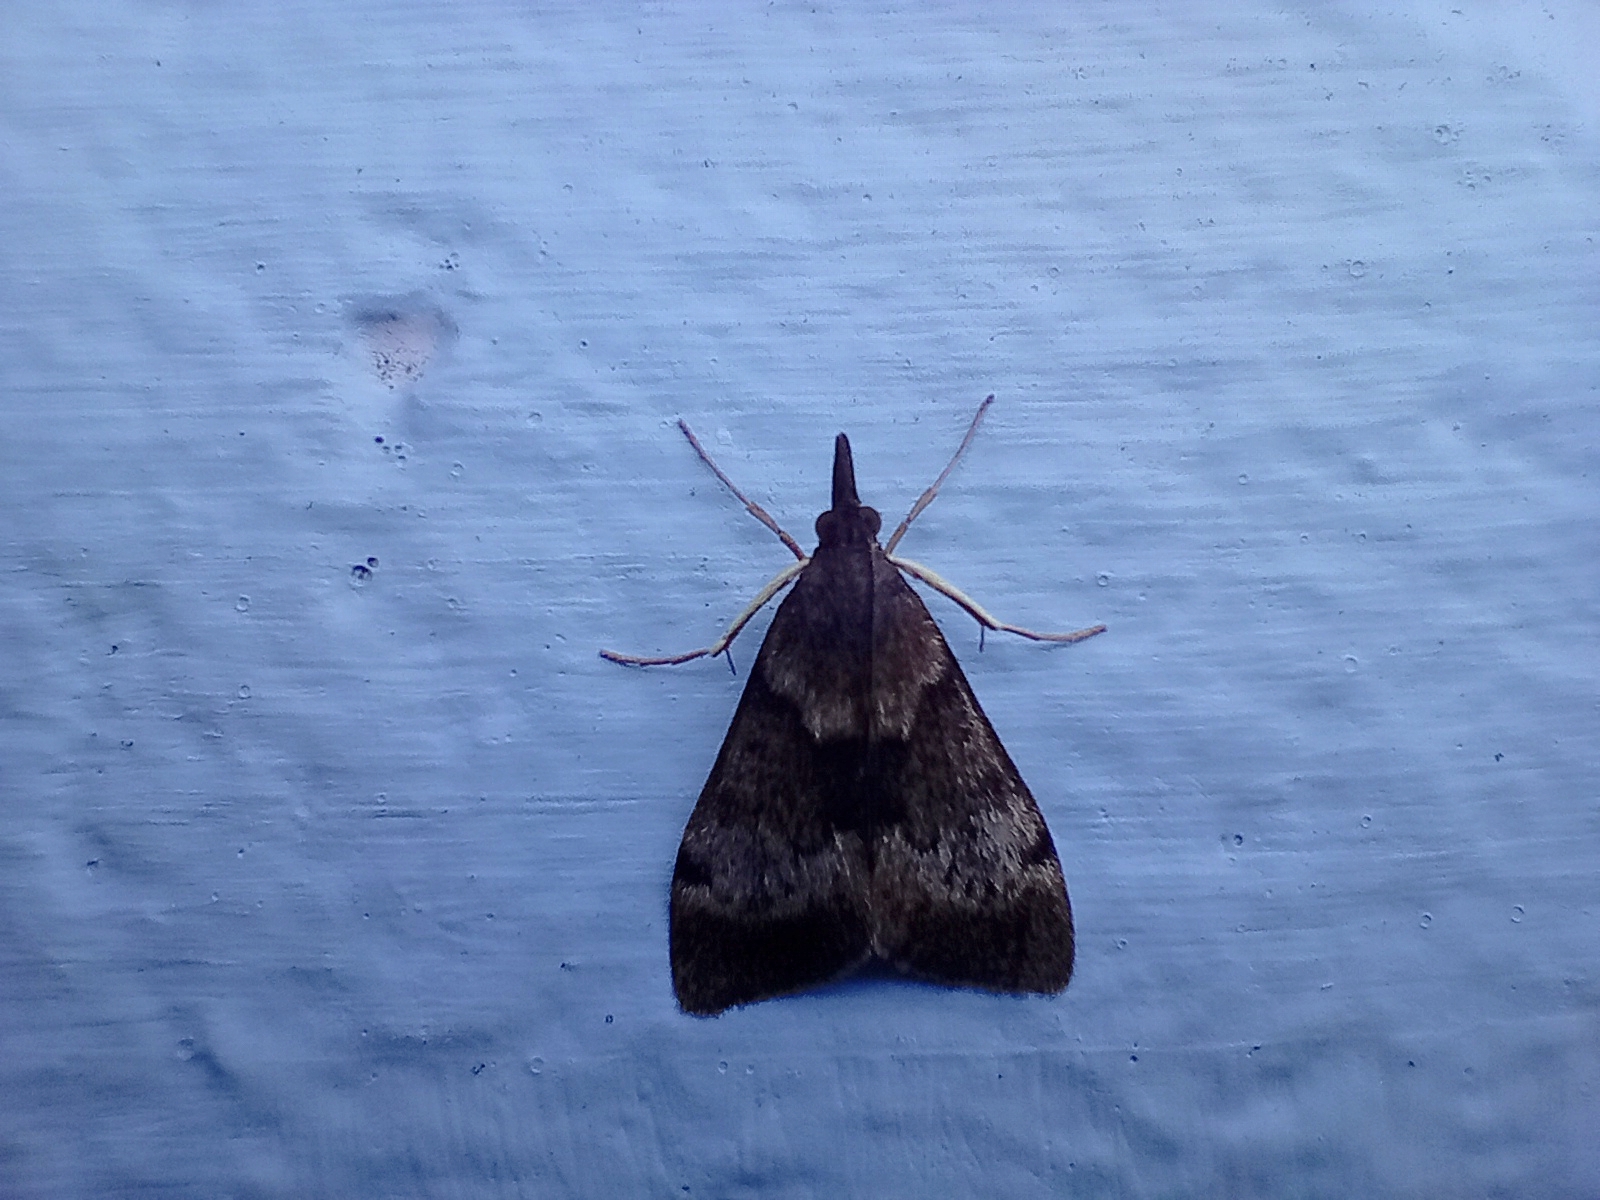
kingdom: Animalia
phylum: Arthropoda
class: Insecta
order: Lepidoptera
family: Crambidae
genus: Uresiphita
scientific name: Uresiphita
